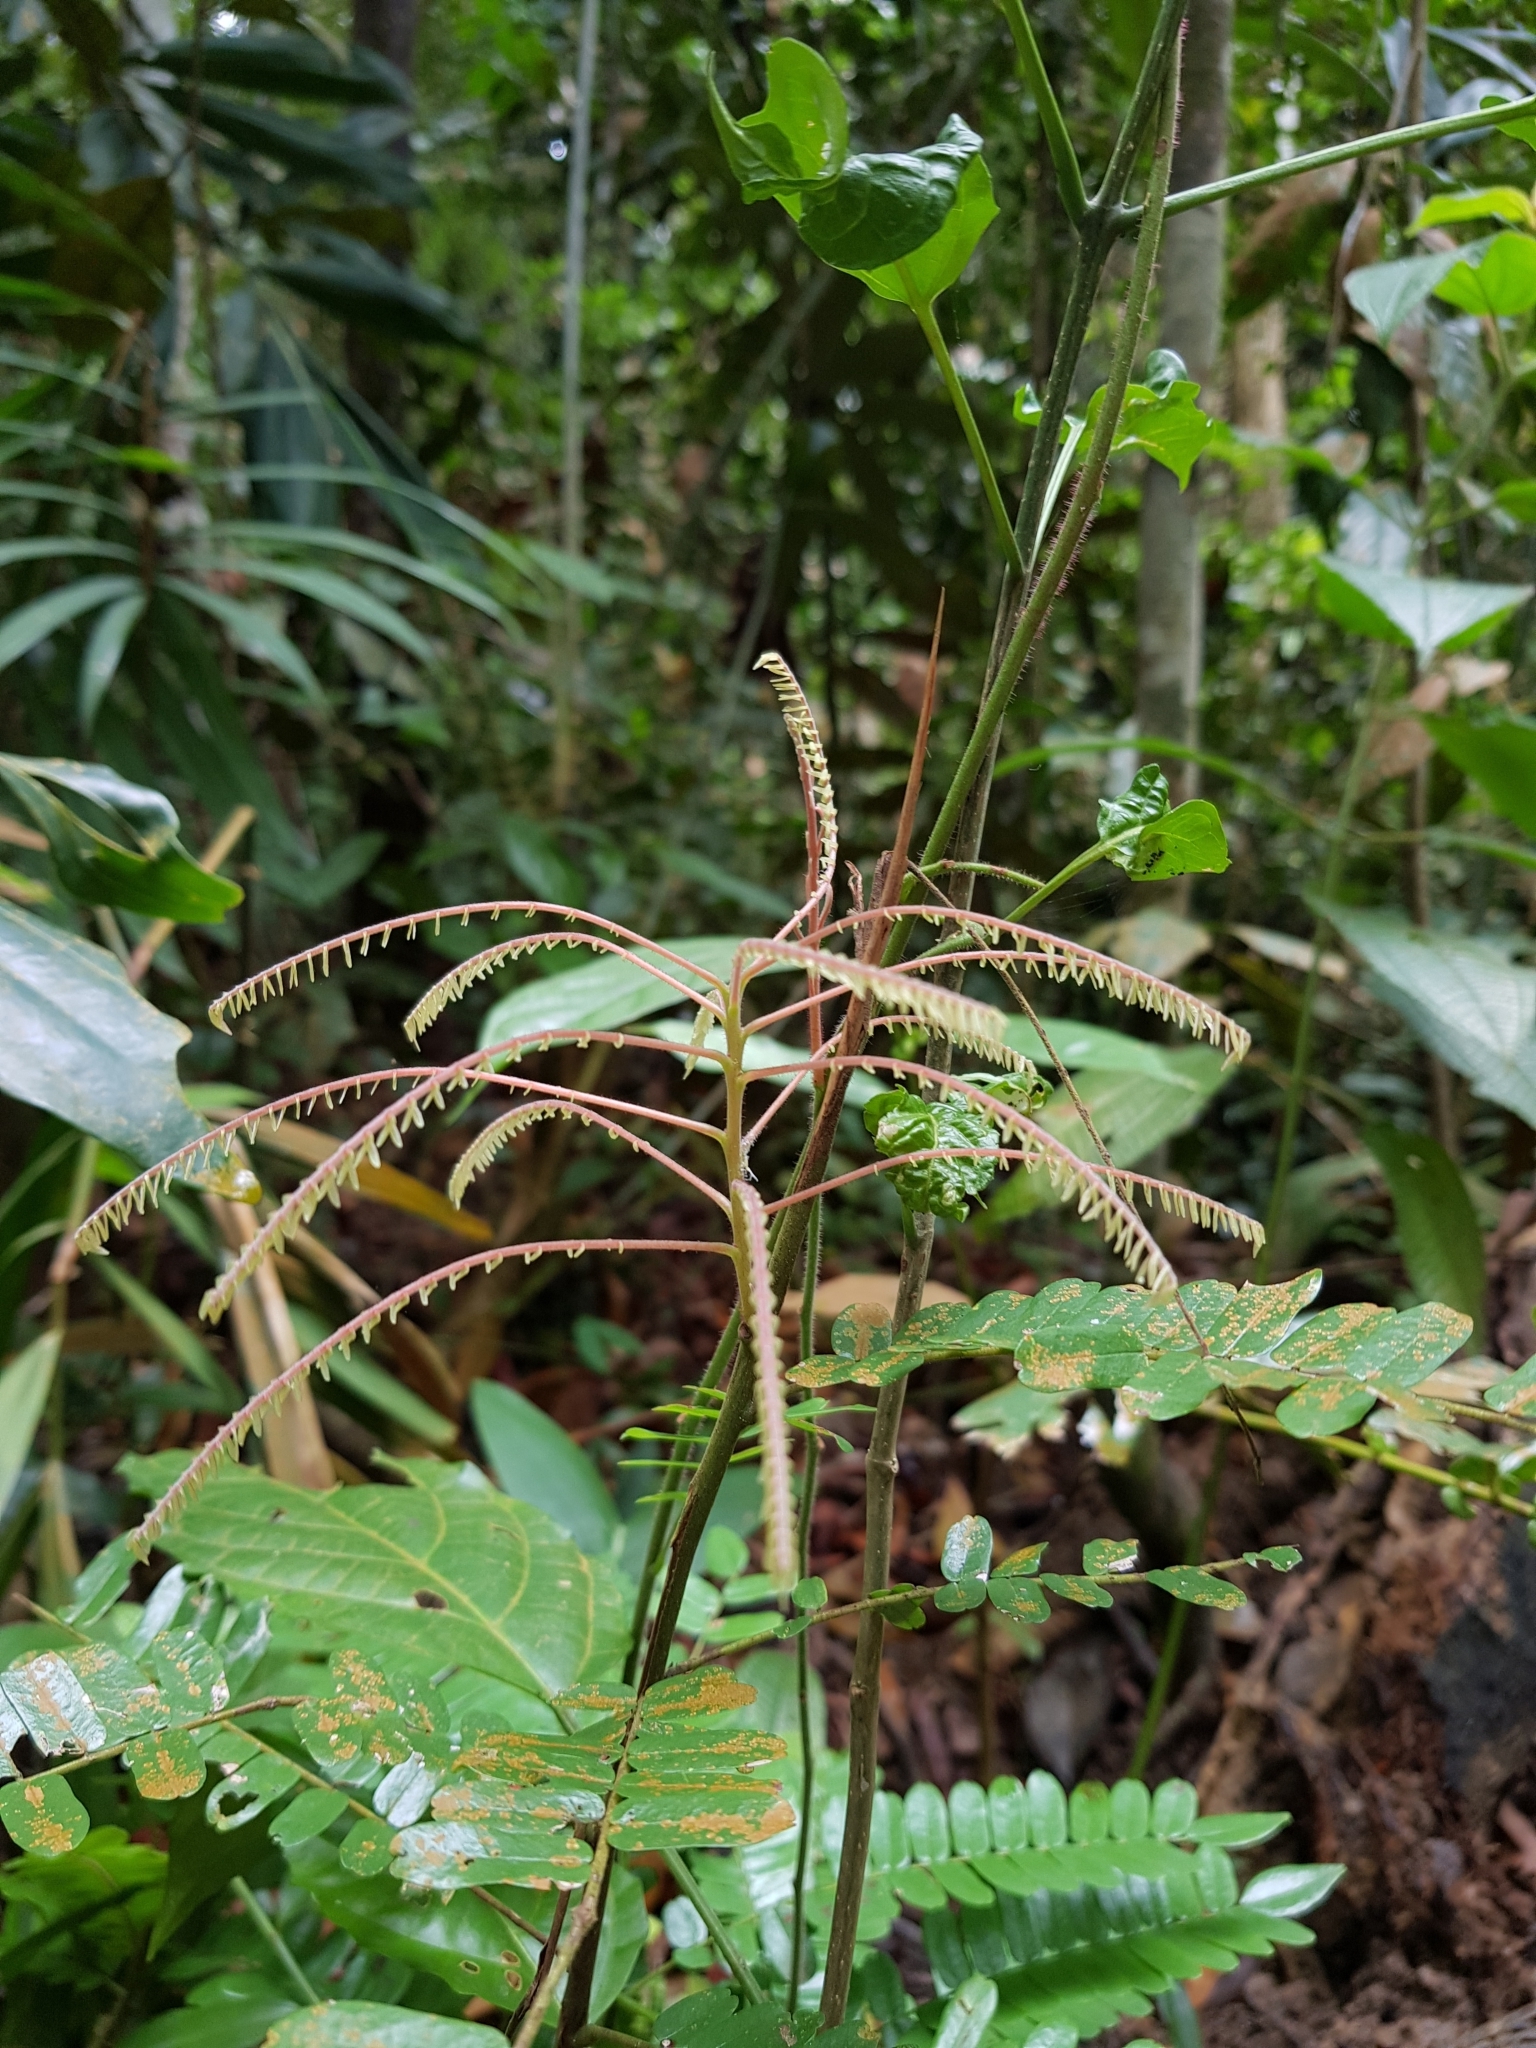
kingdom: Plantae
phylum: Tracheophyta
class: Magnoliopsida
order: Oxalidales
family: Connaraceae
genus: Rourea
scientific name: Rourea mimosoides
